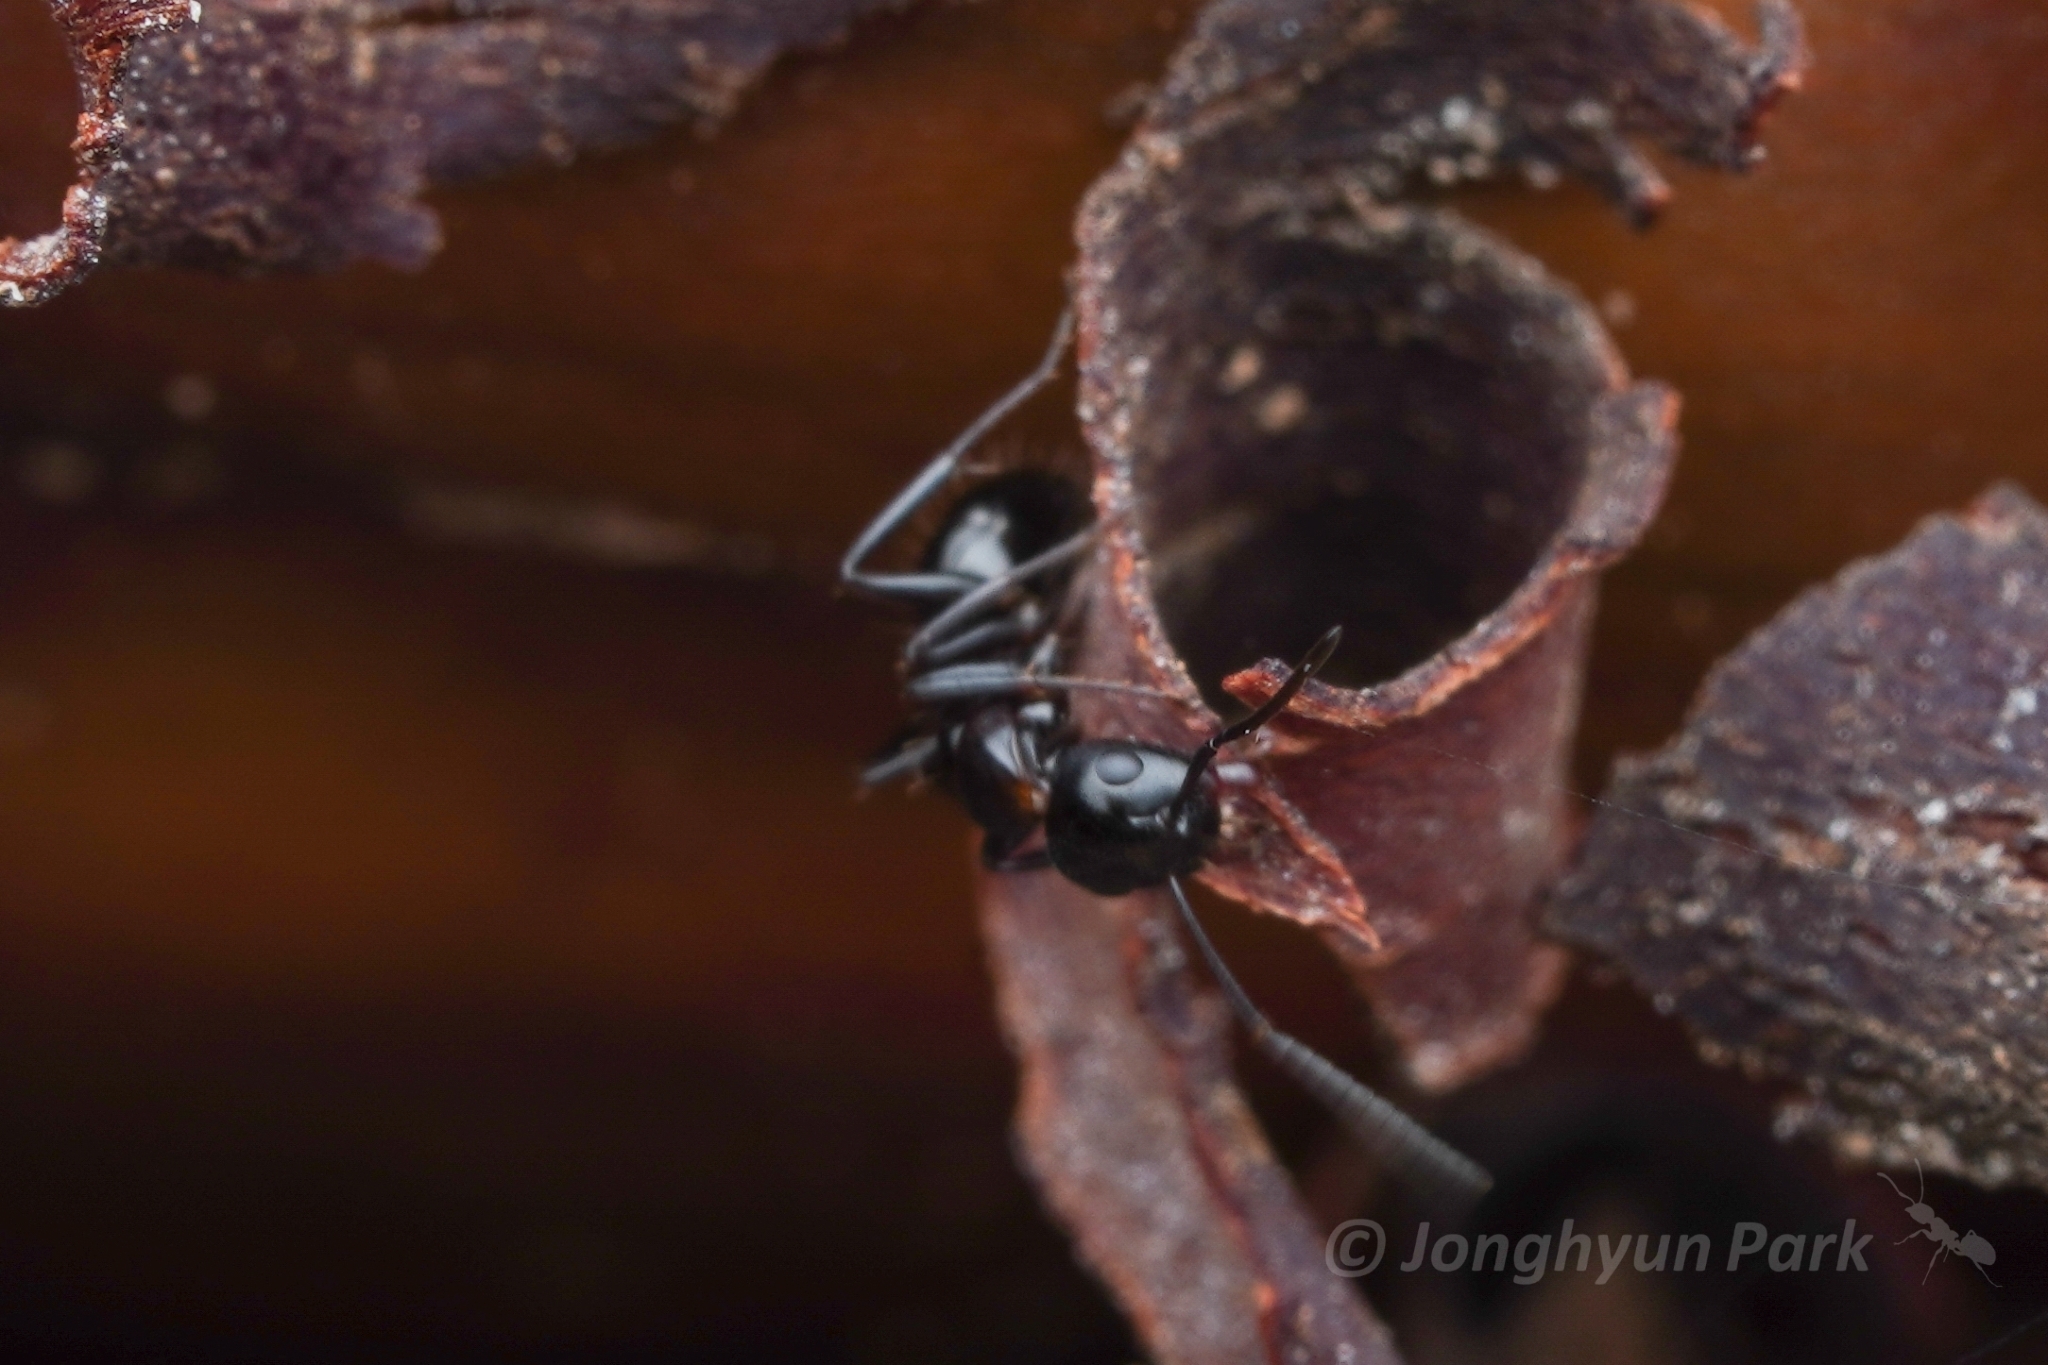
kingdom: Animalia
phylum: Arthropoda
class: Insecta
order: Hymenoptera
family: Formicidae
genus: Camponotus
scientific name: Camponotus hyatti
